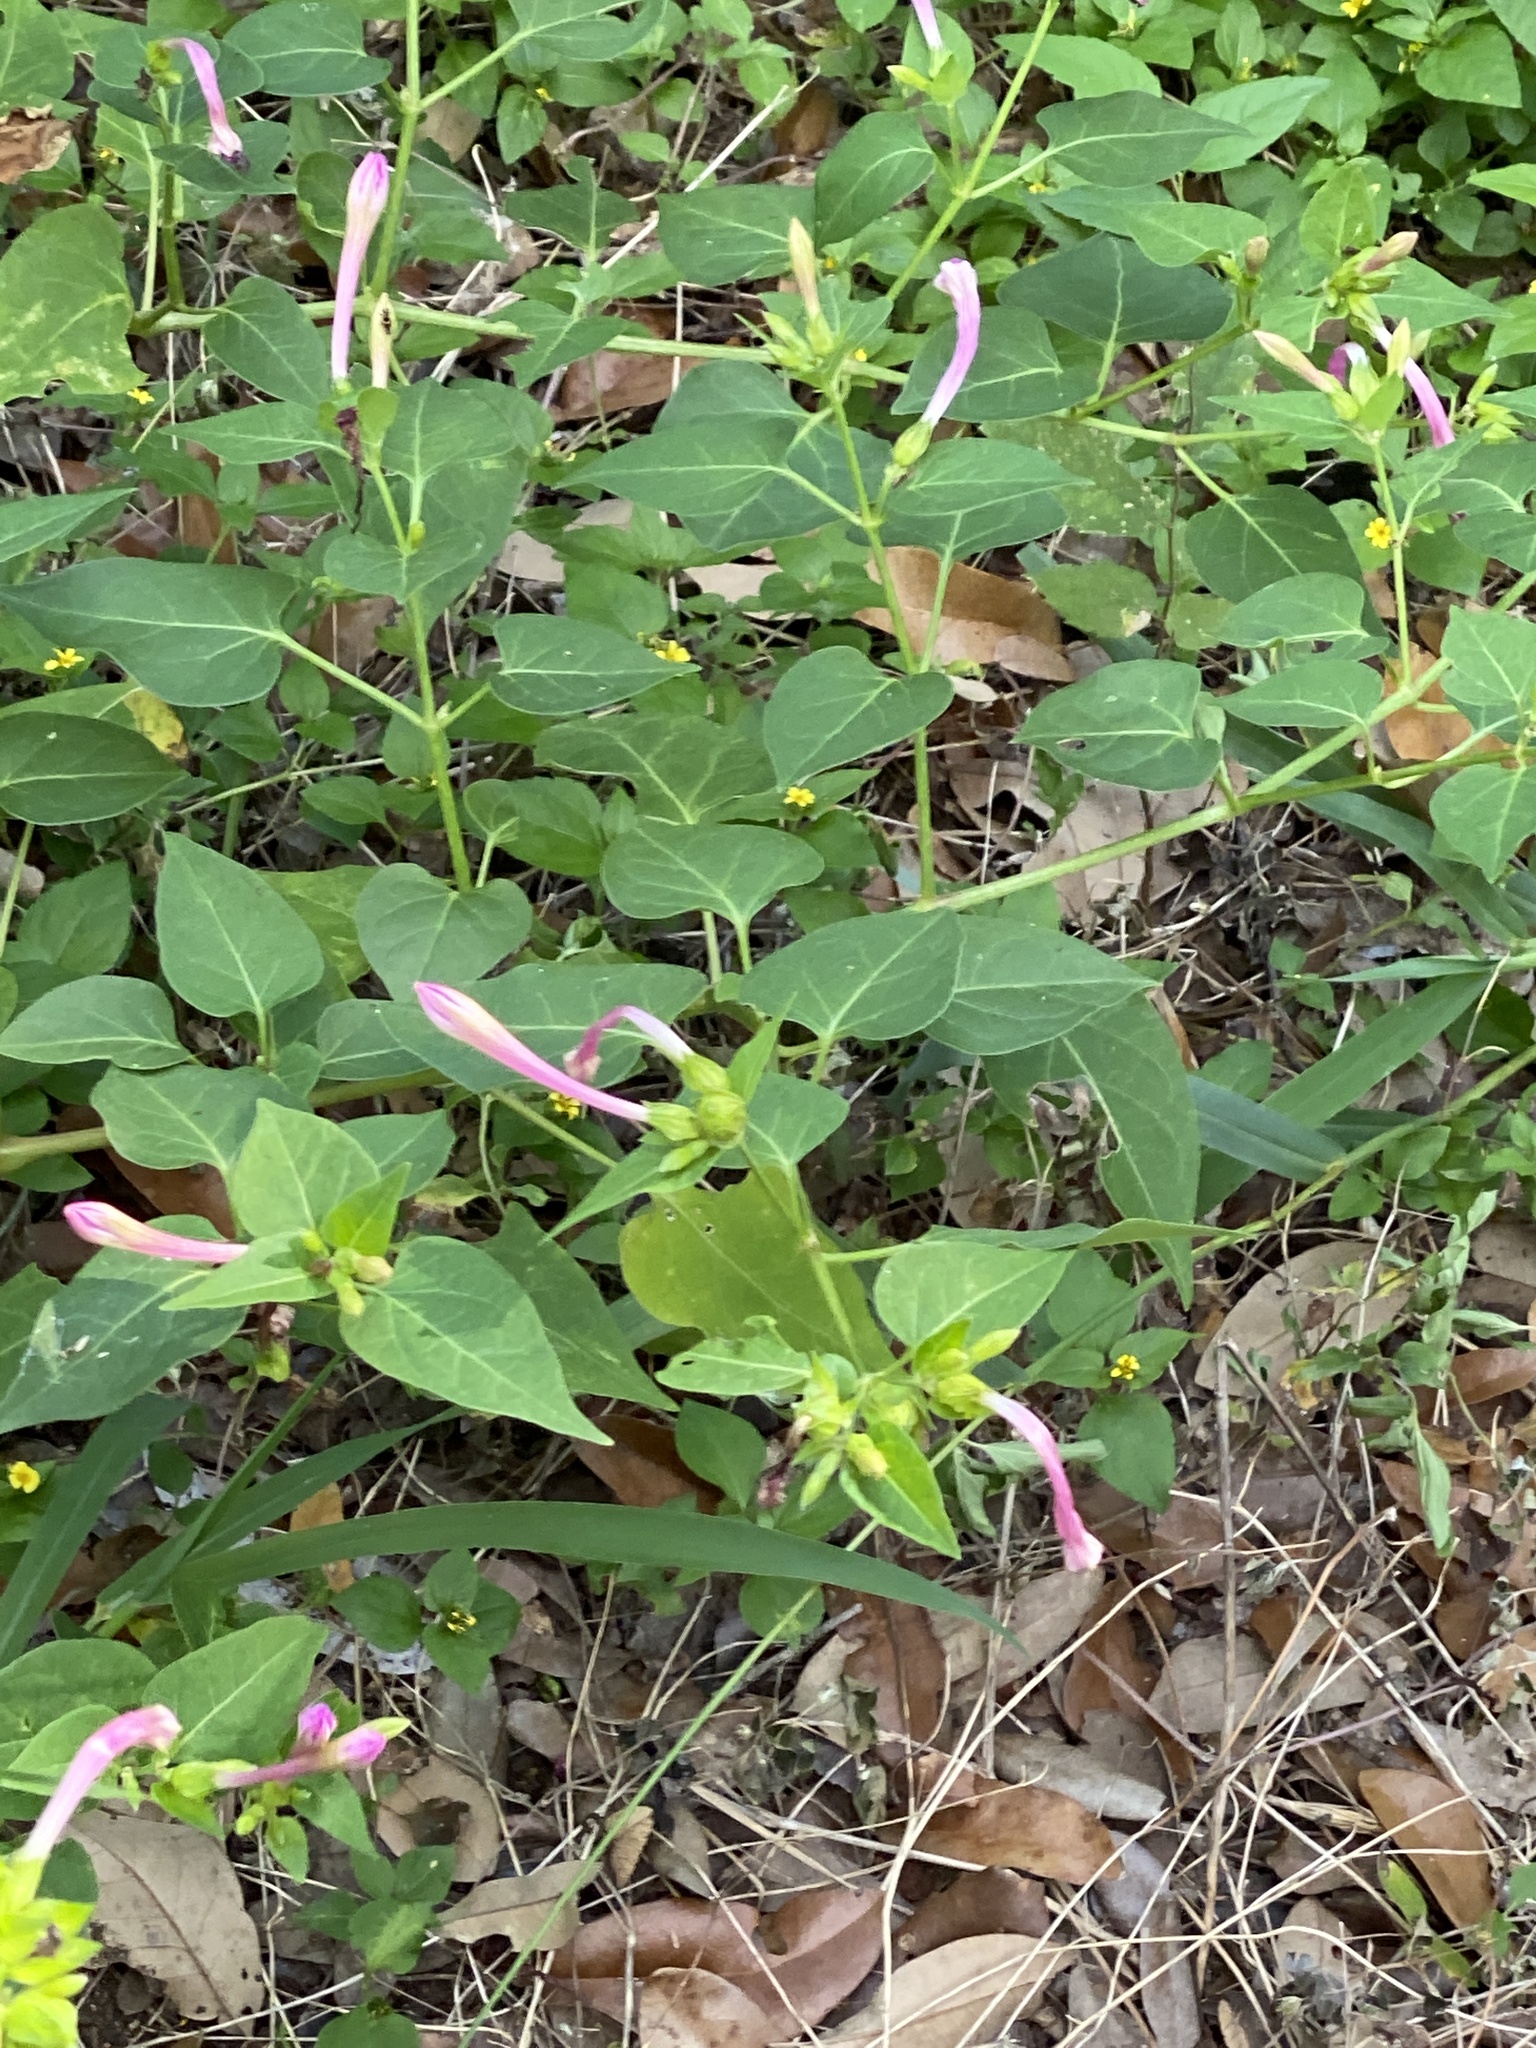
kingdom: Plantae
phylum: Tracheophyta
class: Magnoliopsida
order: Caryophyllales
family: Nyctaginaceae
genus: Mirabilis
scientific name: Mirabilis jalapa
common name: Marvel-of-peru
